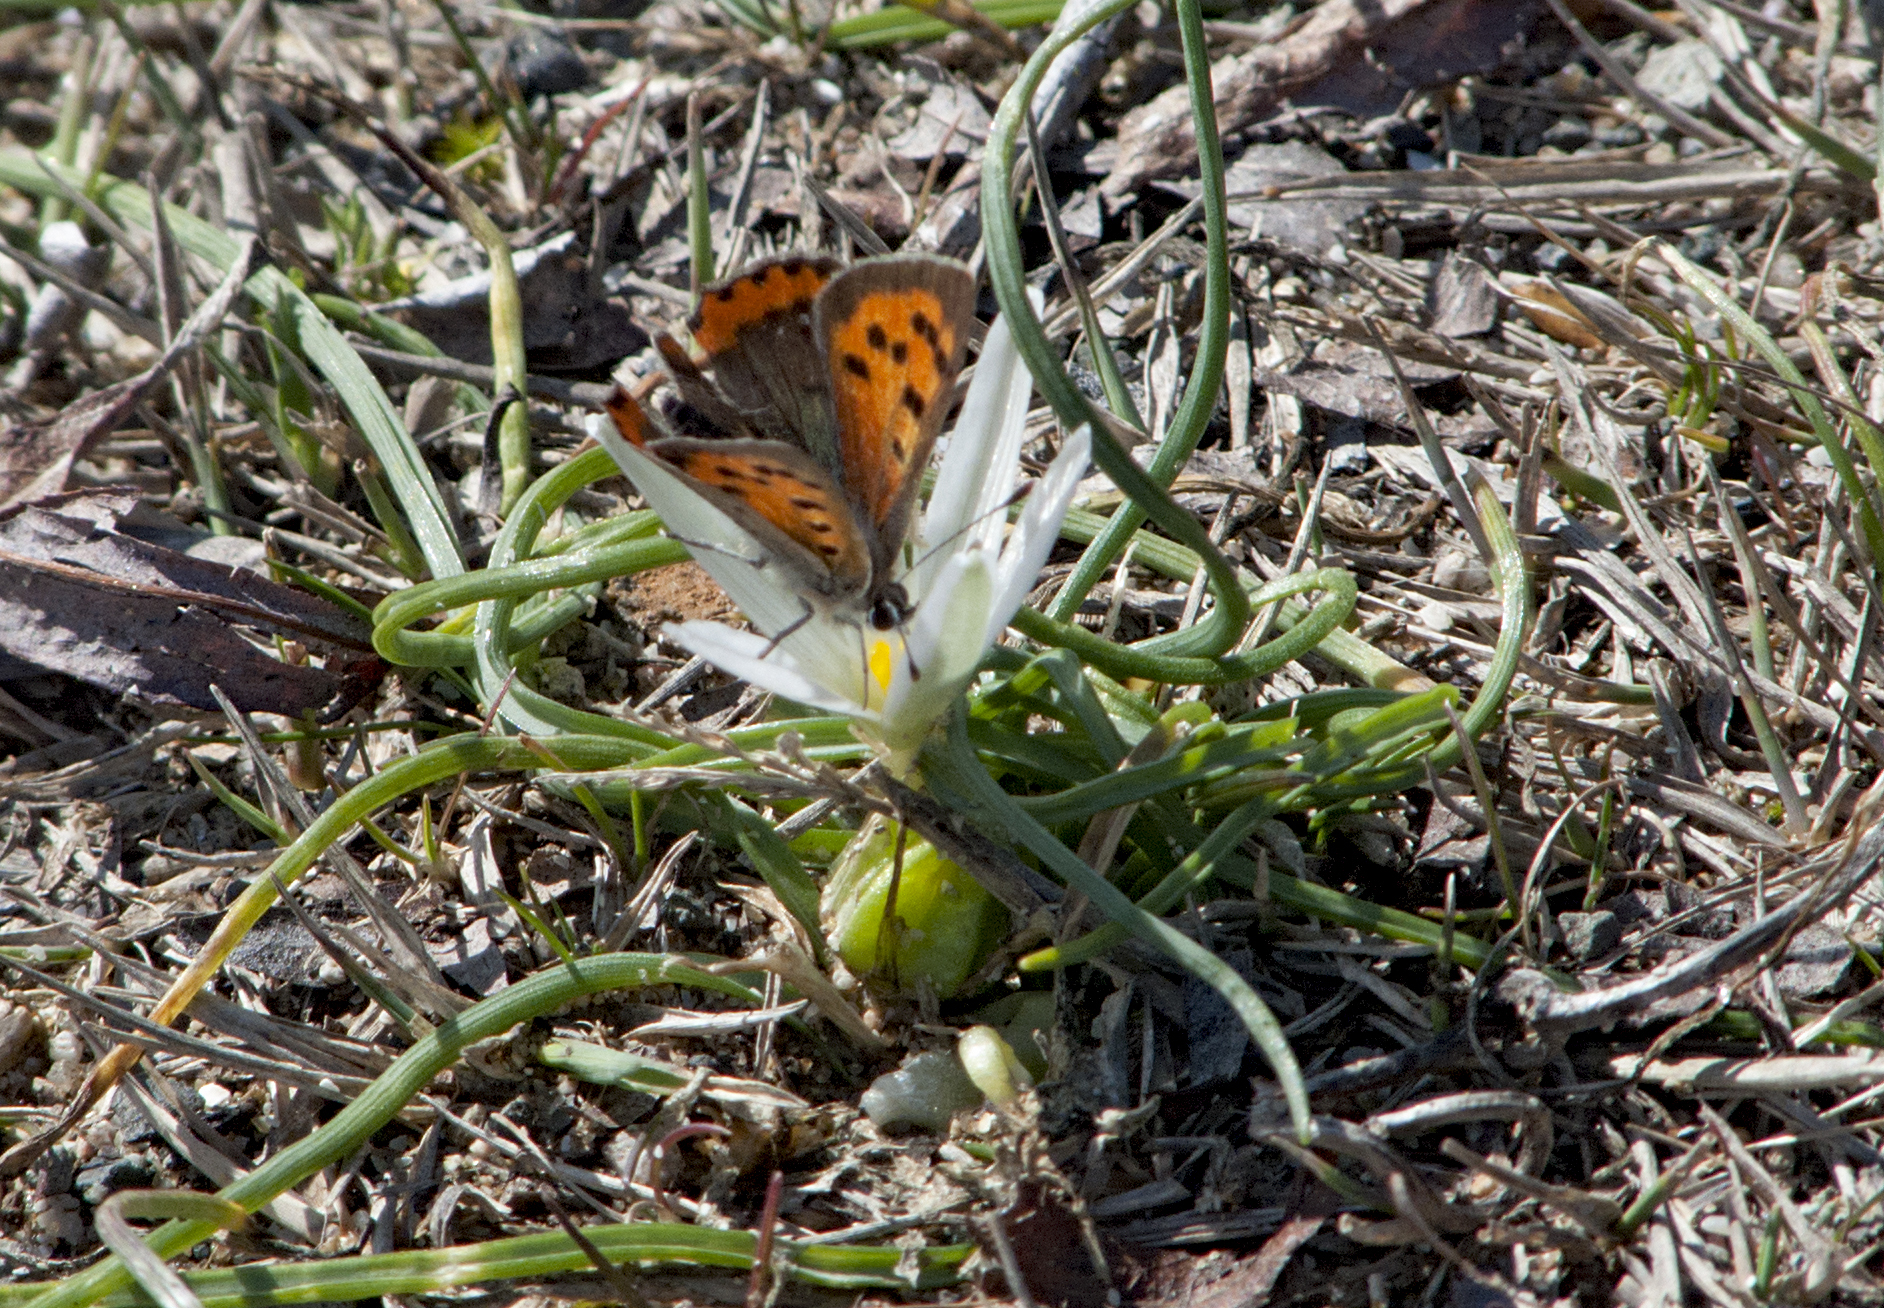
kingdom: Animalia
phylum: Arthropoda
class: Insecta
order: Lepidoptera
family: Lycaenidae
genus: Lycaena
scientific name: Lycaena phlaeas
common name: Small copper
